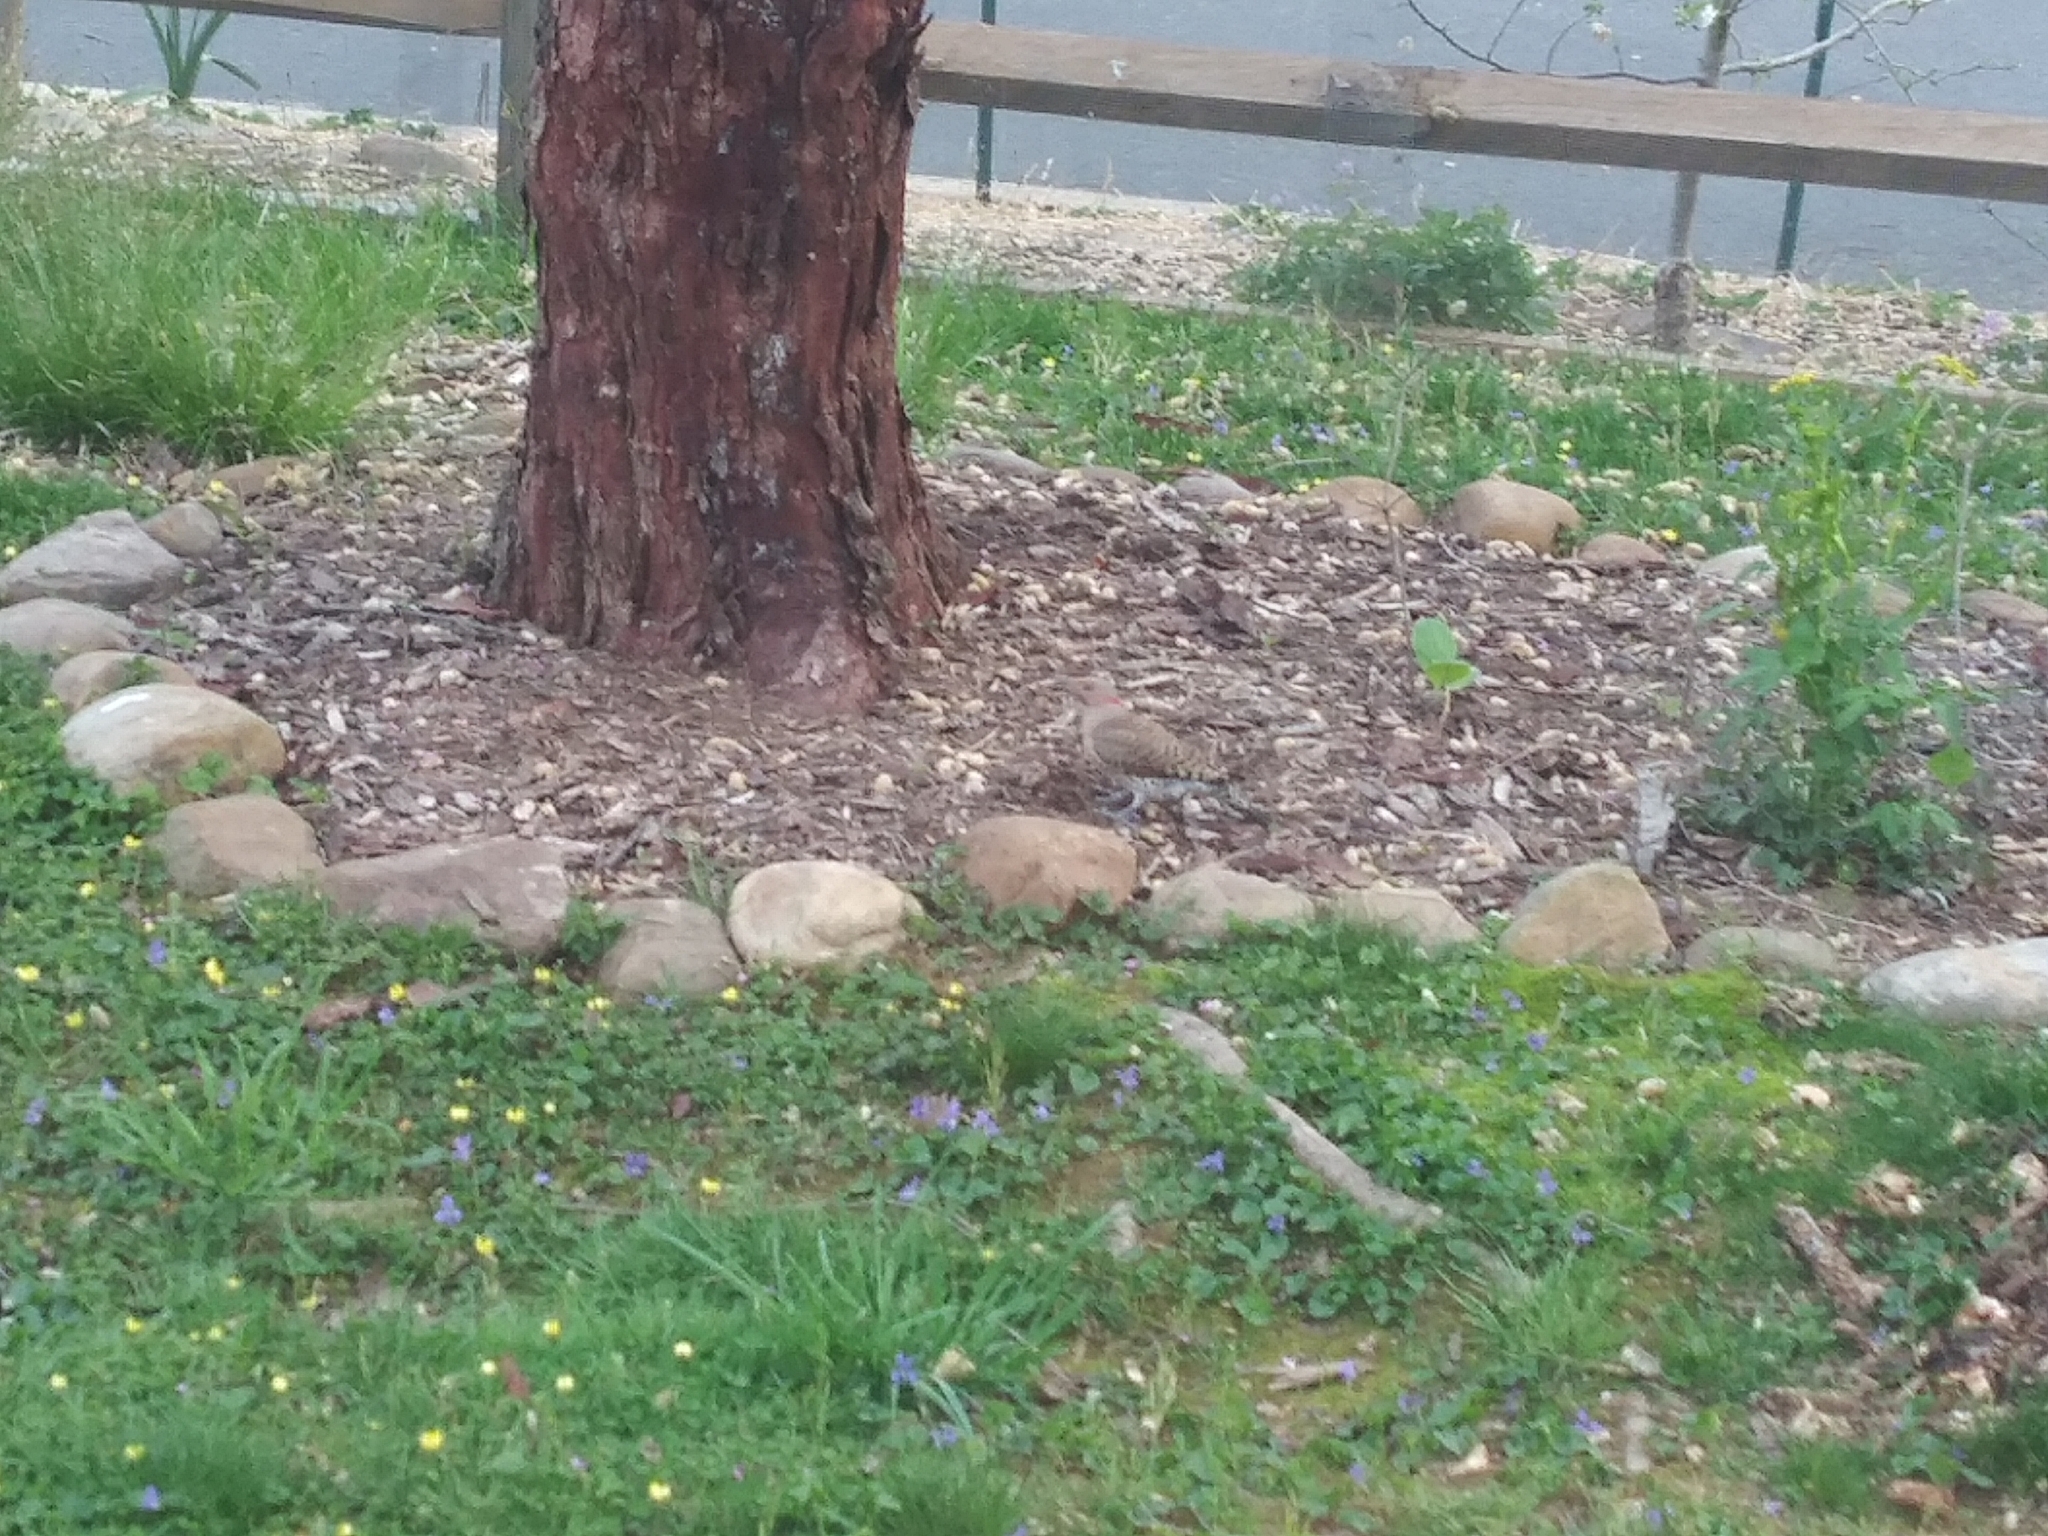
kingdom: Animalia
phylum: Chordata
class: Aves
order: Piciformes
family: Picidae
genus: Colaptes
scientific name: Colaptes auratus
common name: Northern flicker
